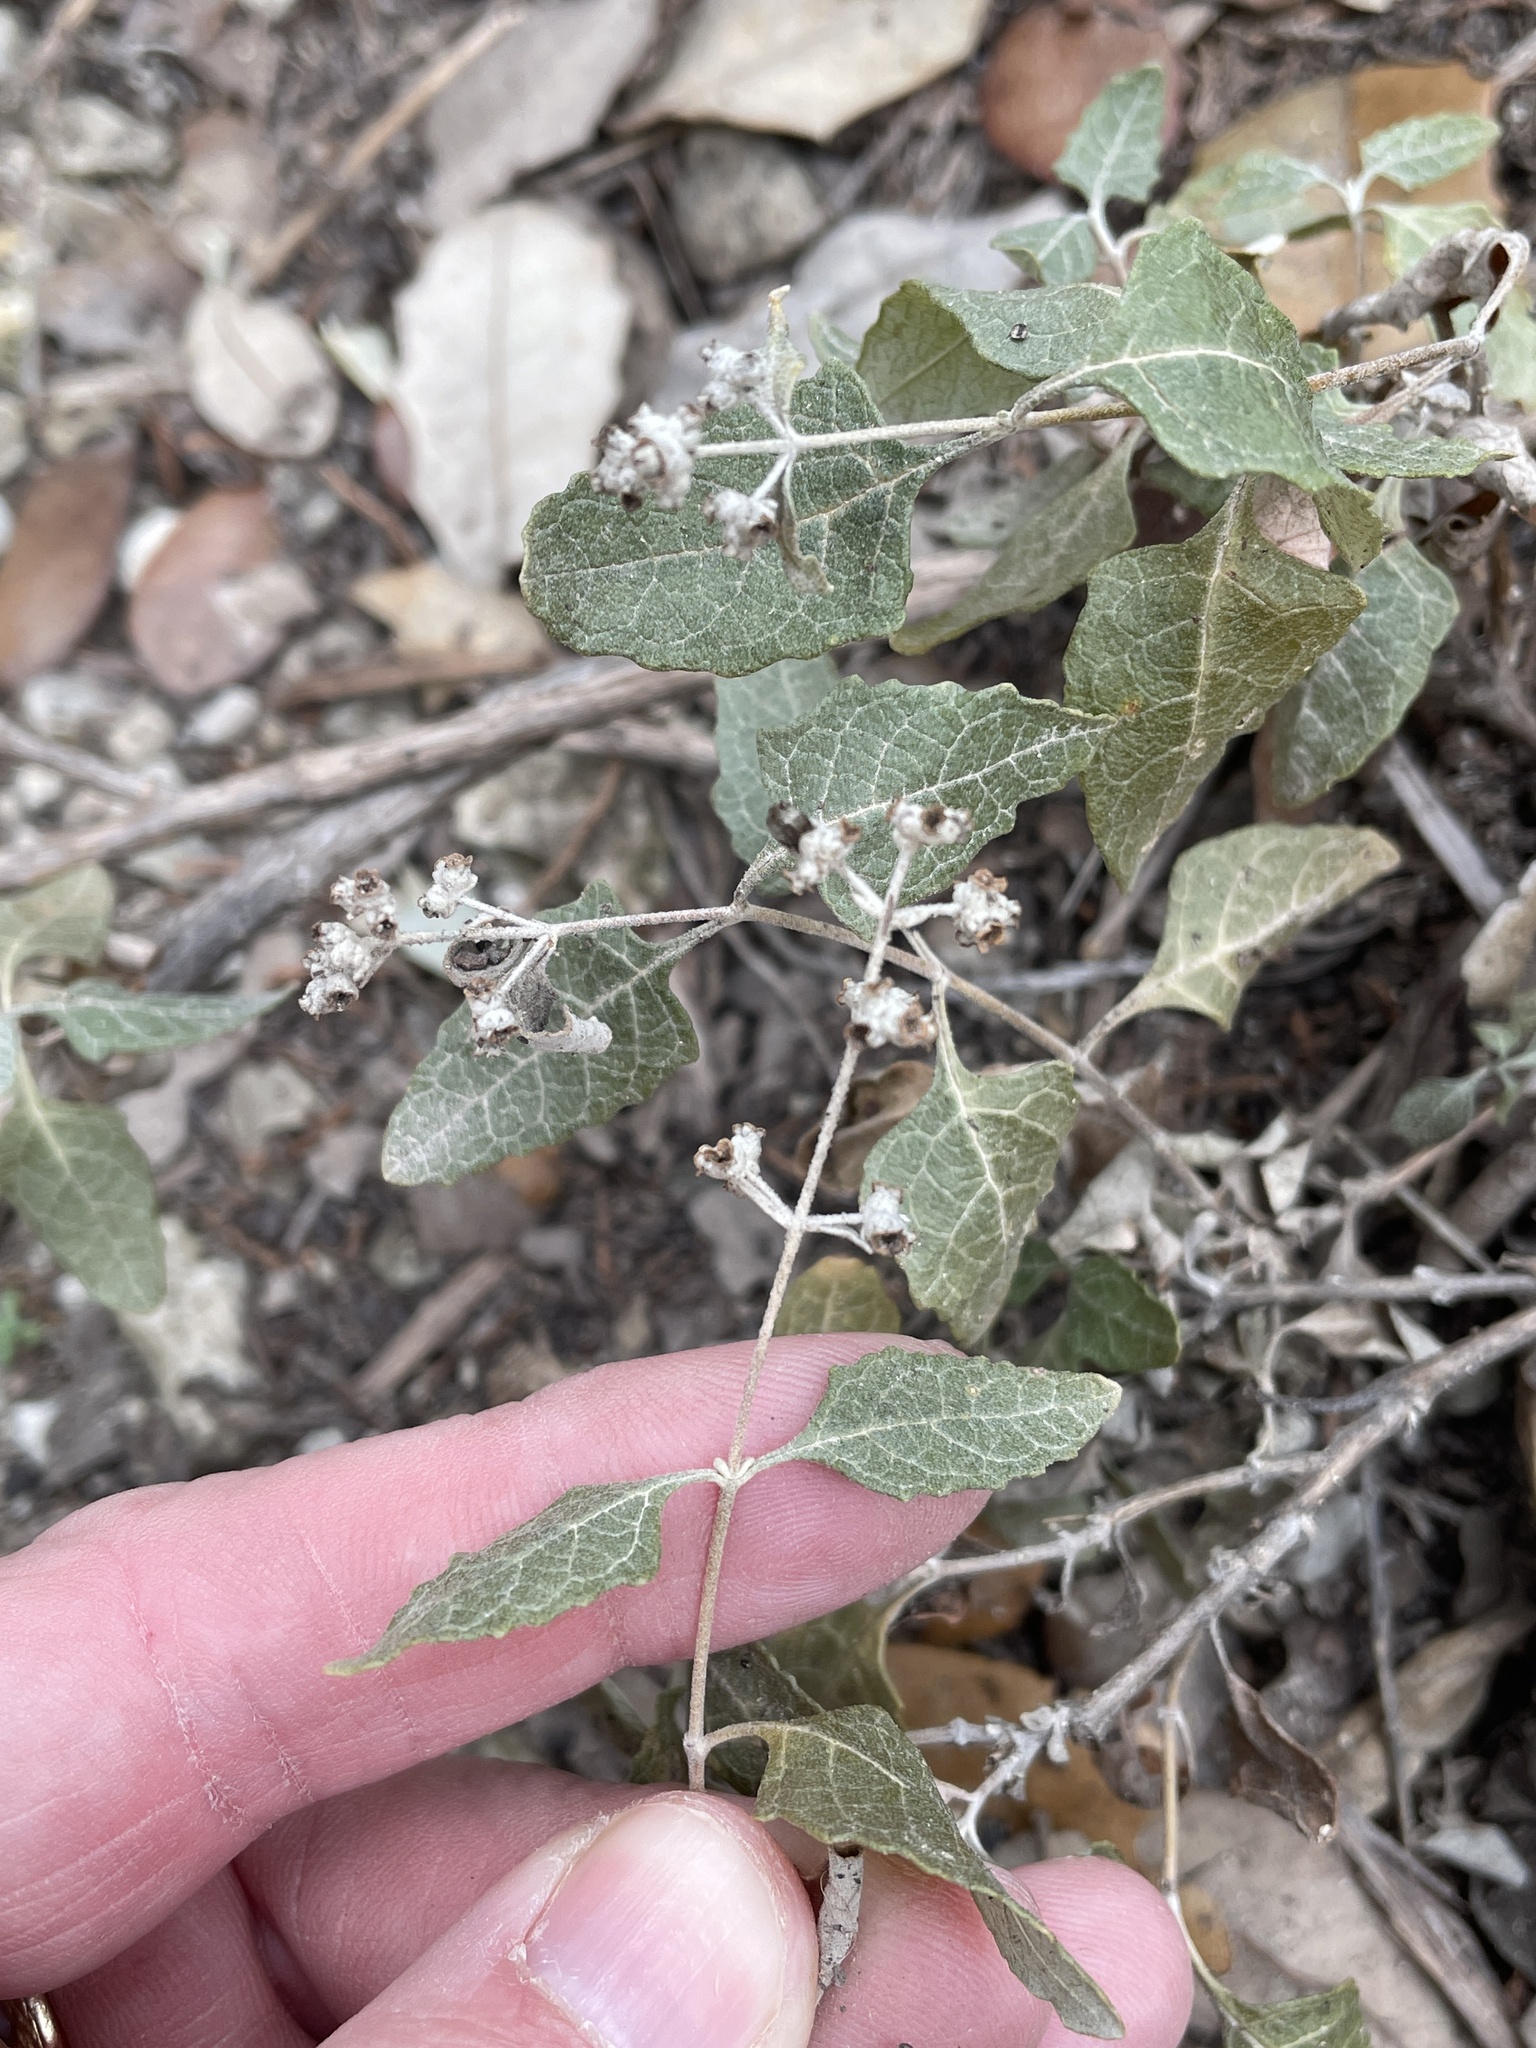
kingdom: Plantae
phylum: Tracheophyta
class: Magnoliopsida
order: Lamiales
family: Scrophulariaceae
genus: Buddleja
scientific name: Buddleja racemosa
